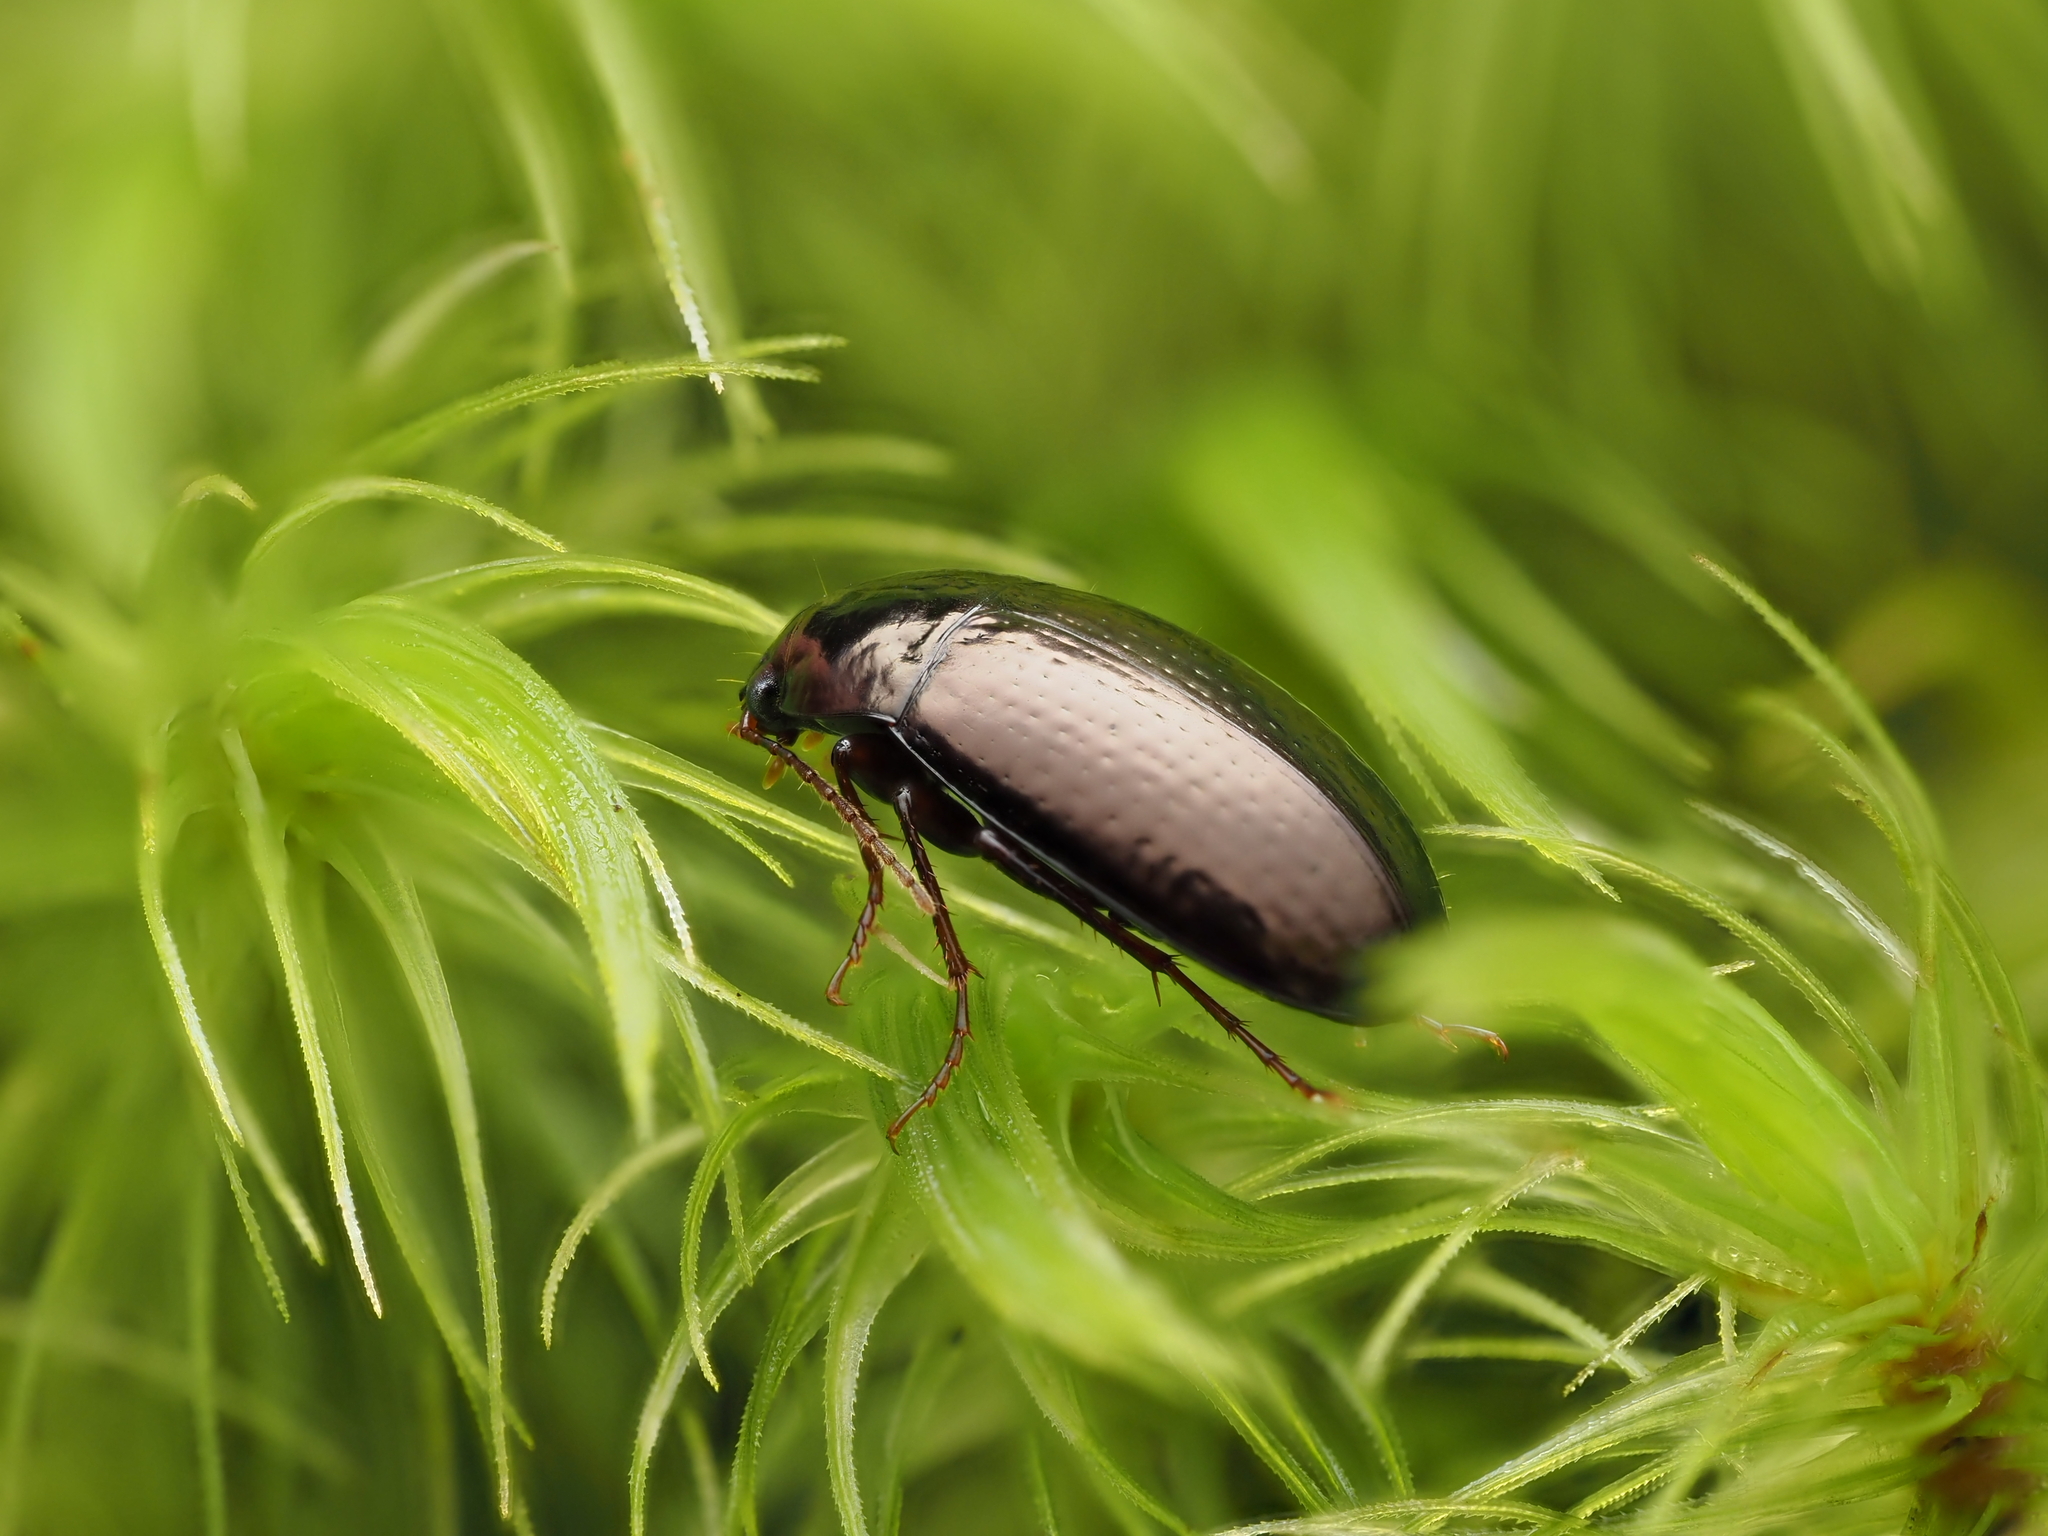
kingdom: Animalia
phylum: Arthropoda
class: Insecta
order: Coleoptera
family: Carabidae
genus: Amarotypus
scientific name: Amarotypus edwardsii
